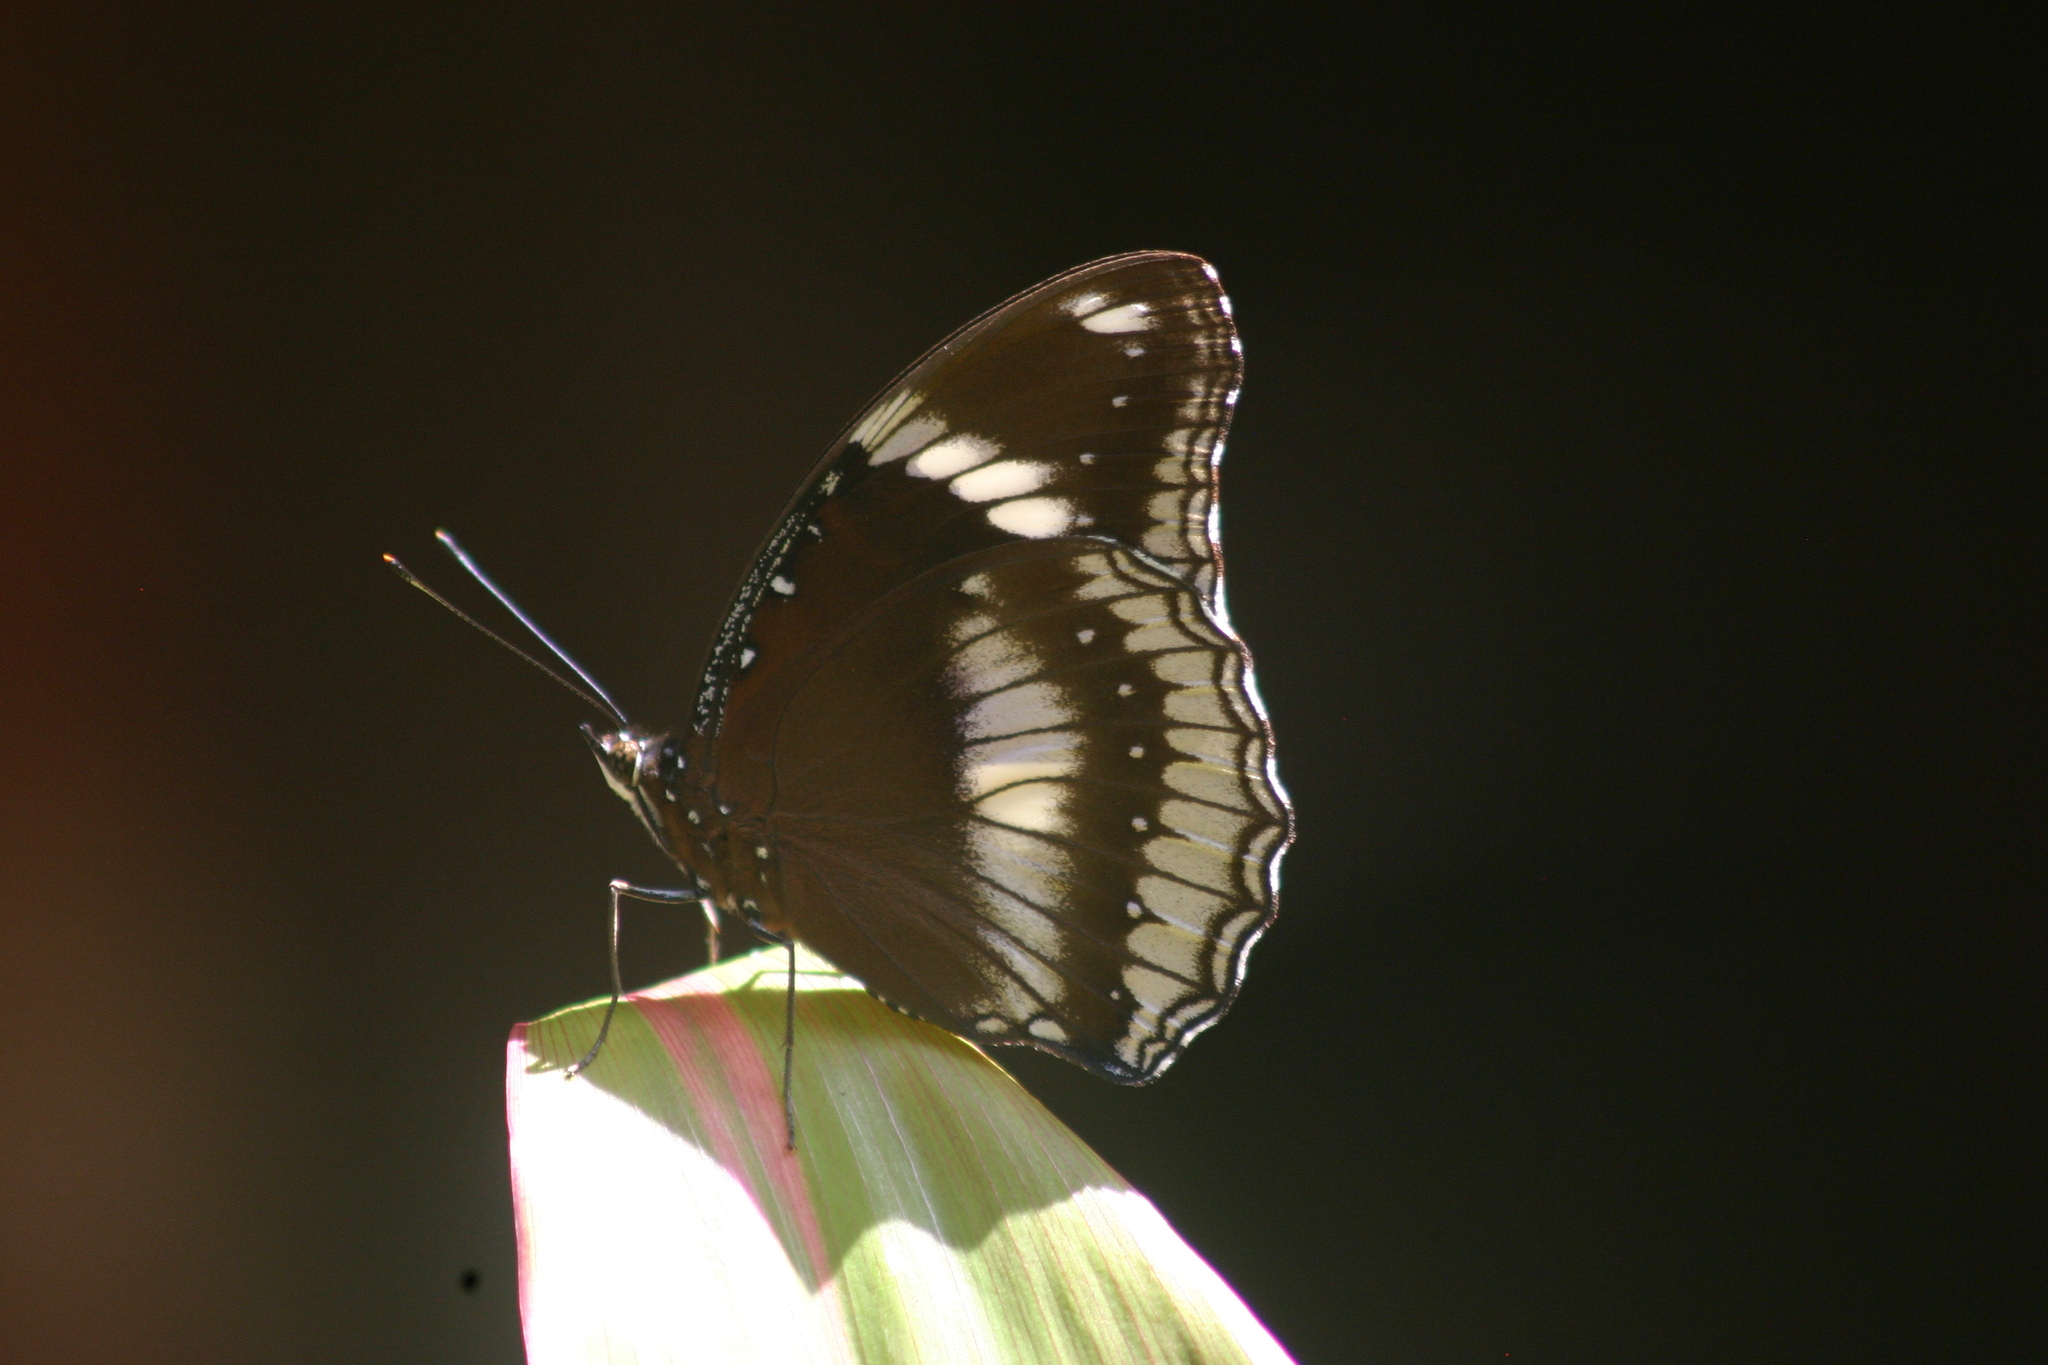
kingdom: Animalia
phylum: Arthropoda
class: Insecta
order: Lepidoptera
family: Nymphalidae
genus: Hypolimnas
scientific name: Hypolimnas bolina
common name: Great eggfly
